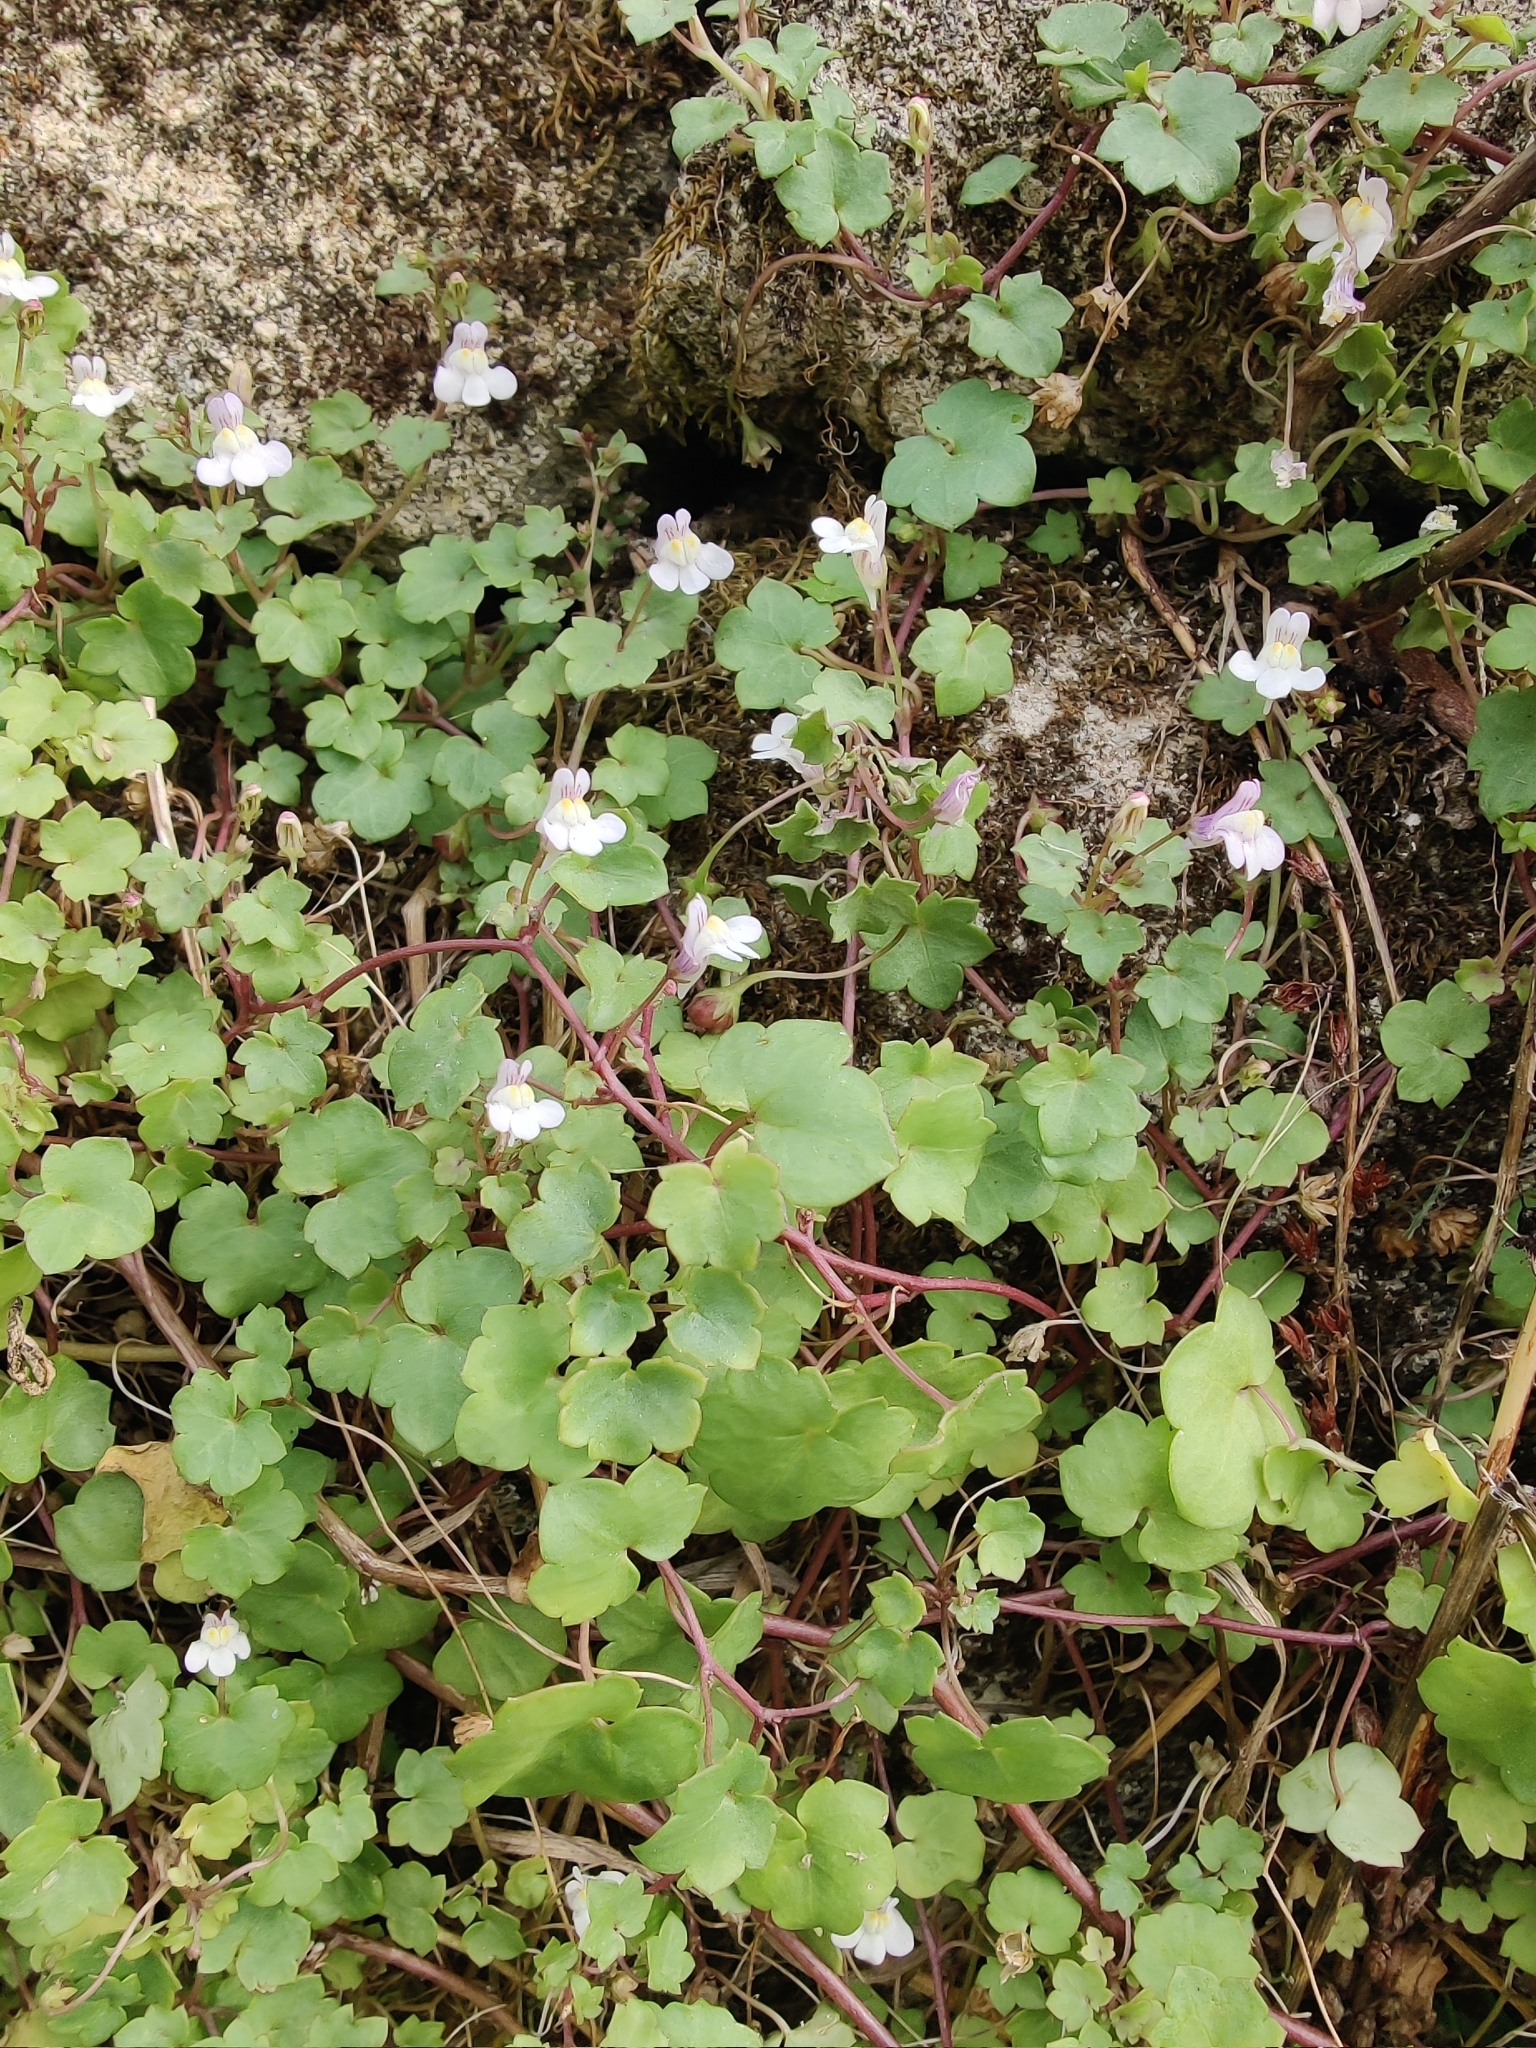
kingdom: Plantae
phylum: Tracheophyta
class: Magnoliopsida
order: Lamiales
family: Plantaginaceae
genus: Cymbalaria
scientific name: Cymbalaria muralis
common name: Ivy-leaved toadflax
